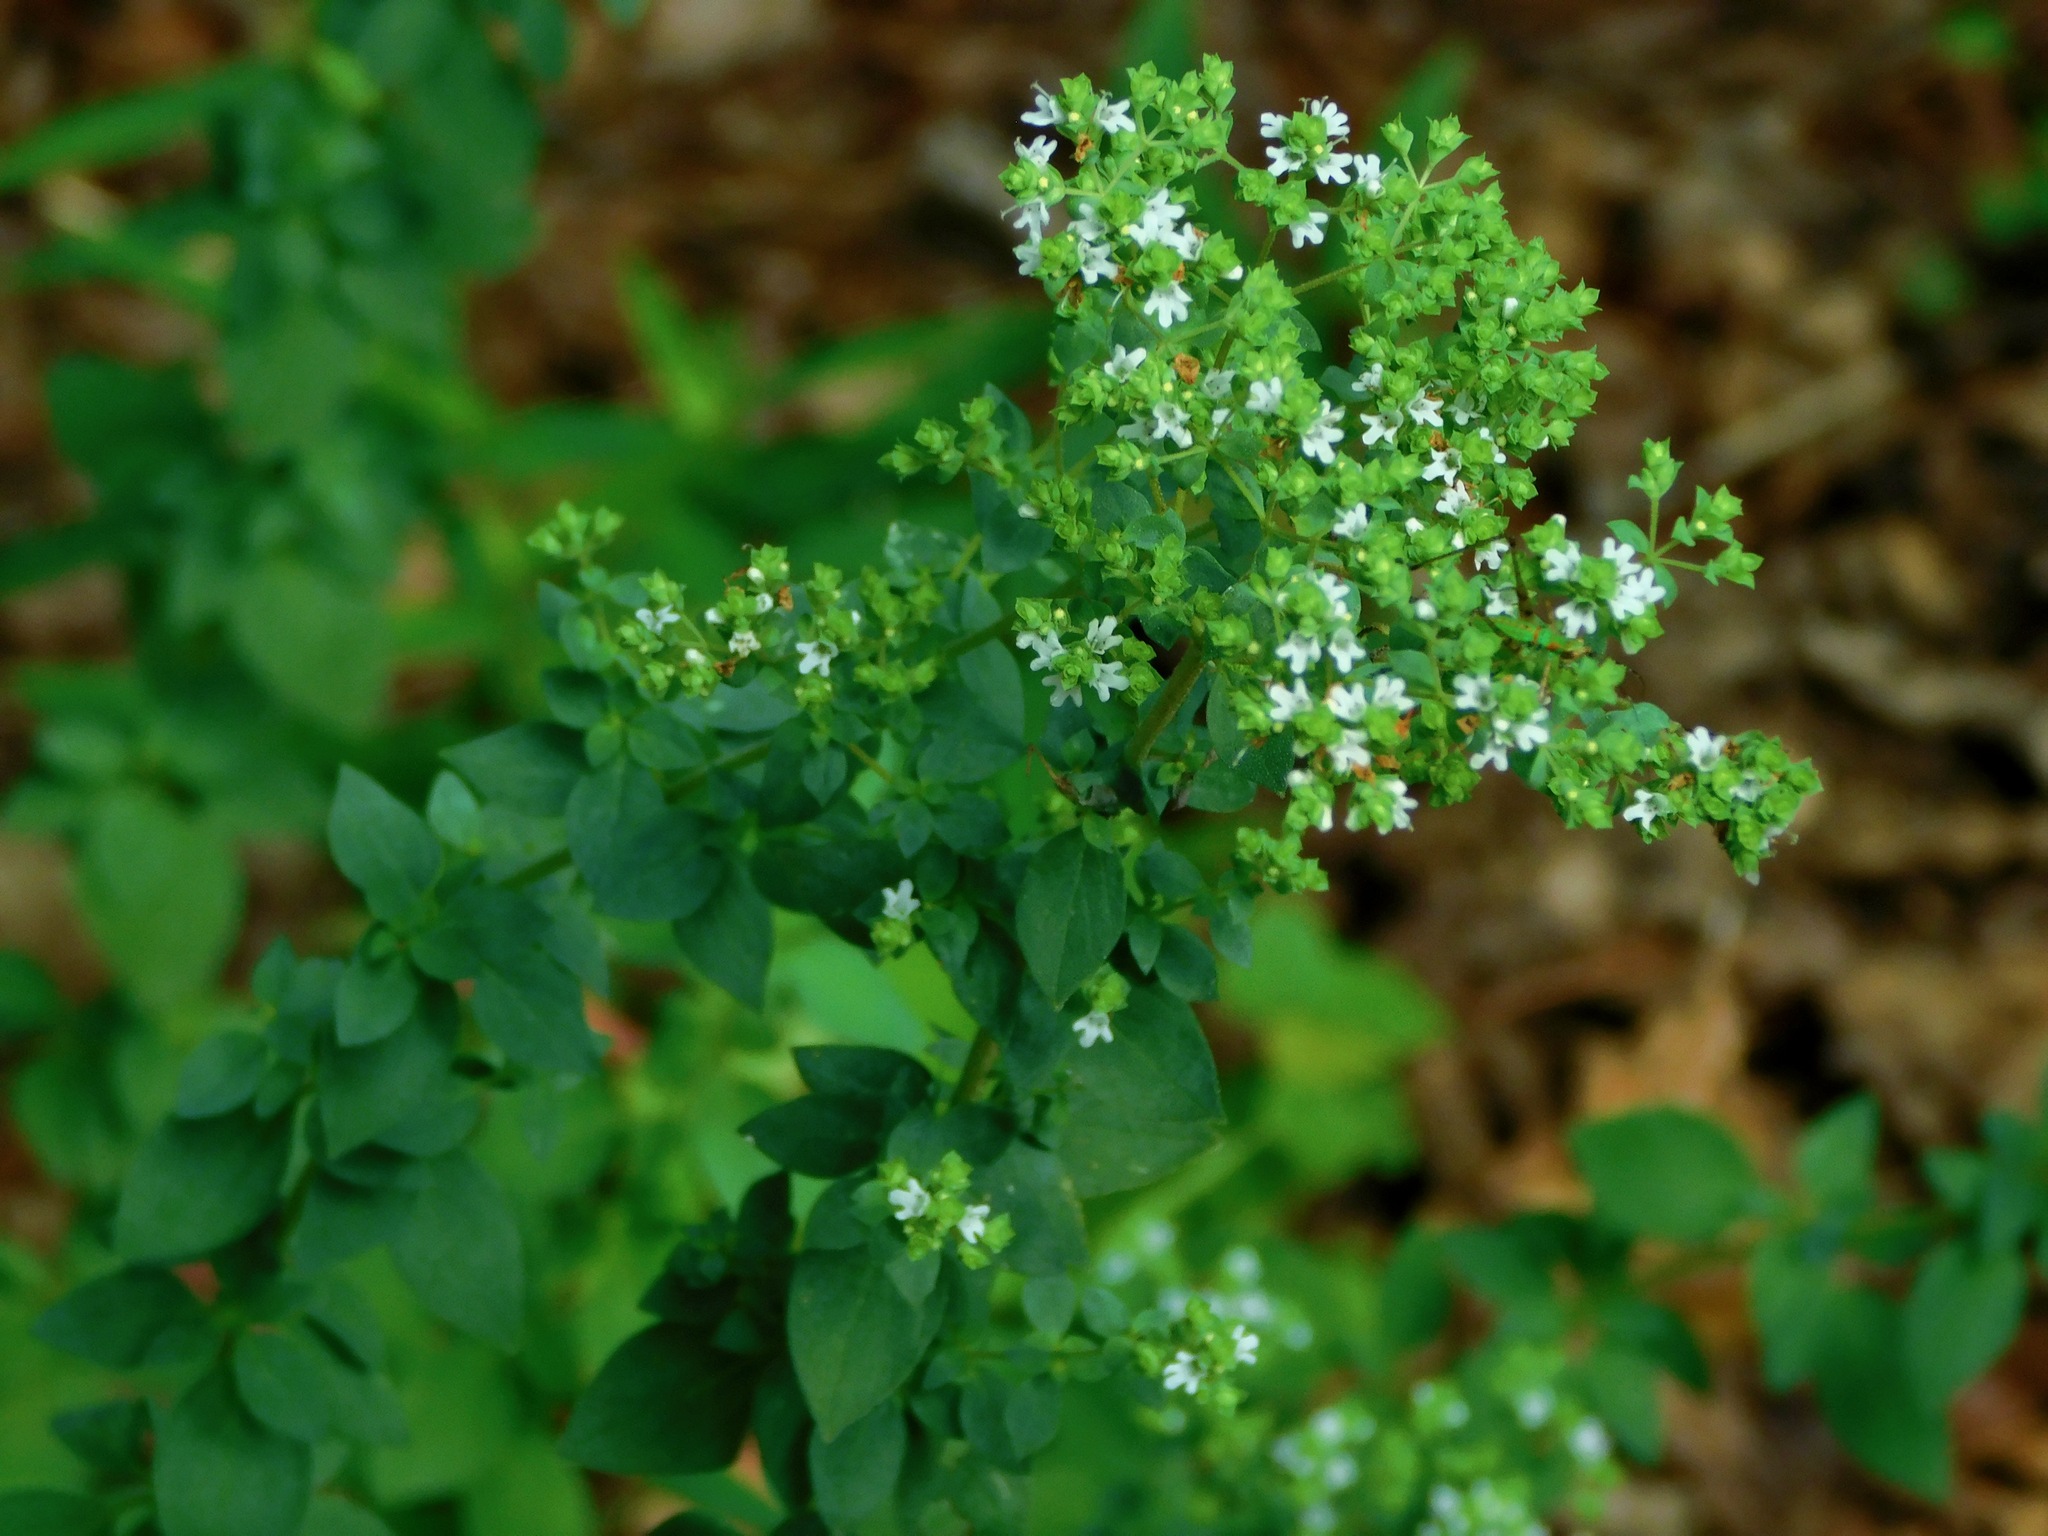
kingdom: Plantae
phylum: Tracheophyta
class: Magnoliopsida
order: Lamiales
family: Lamiaceae
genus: Origanum
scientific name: Origanum vulgare
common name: Wild marjoram
